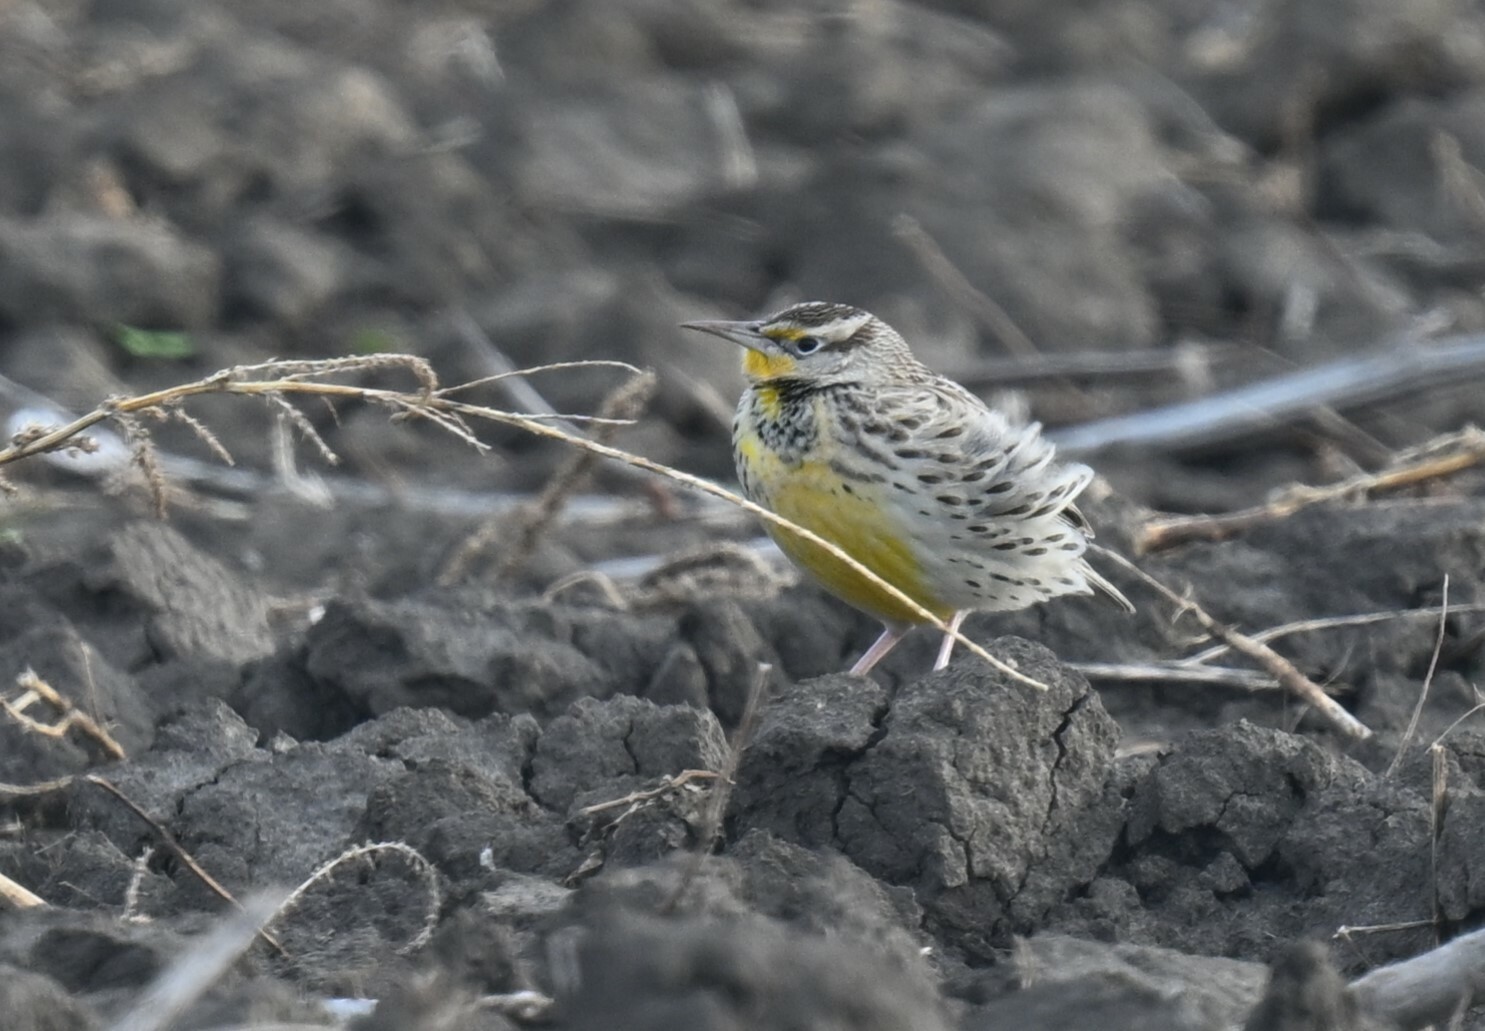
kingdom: Animalia
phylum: Chordata
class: Aves
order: Passeriformes
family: Icteridae
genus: Sturnella
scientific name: Sturnella magna
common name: Eastern meadowlark
